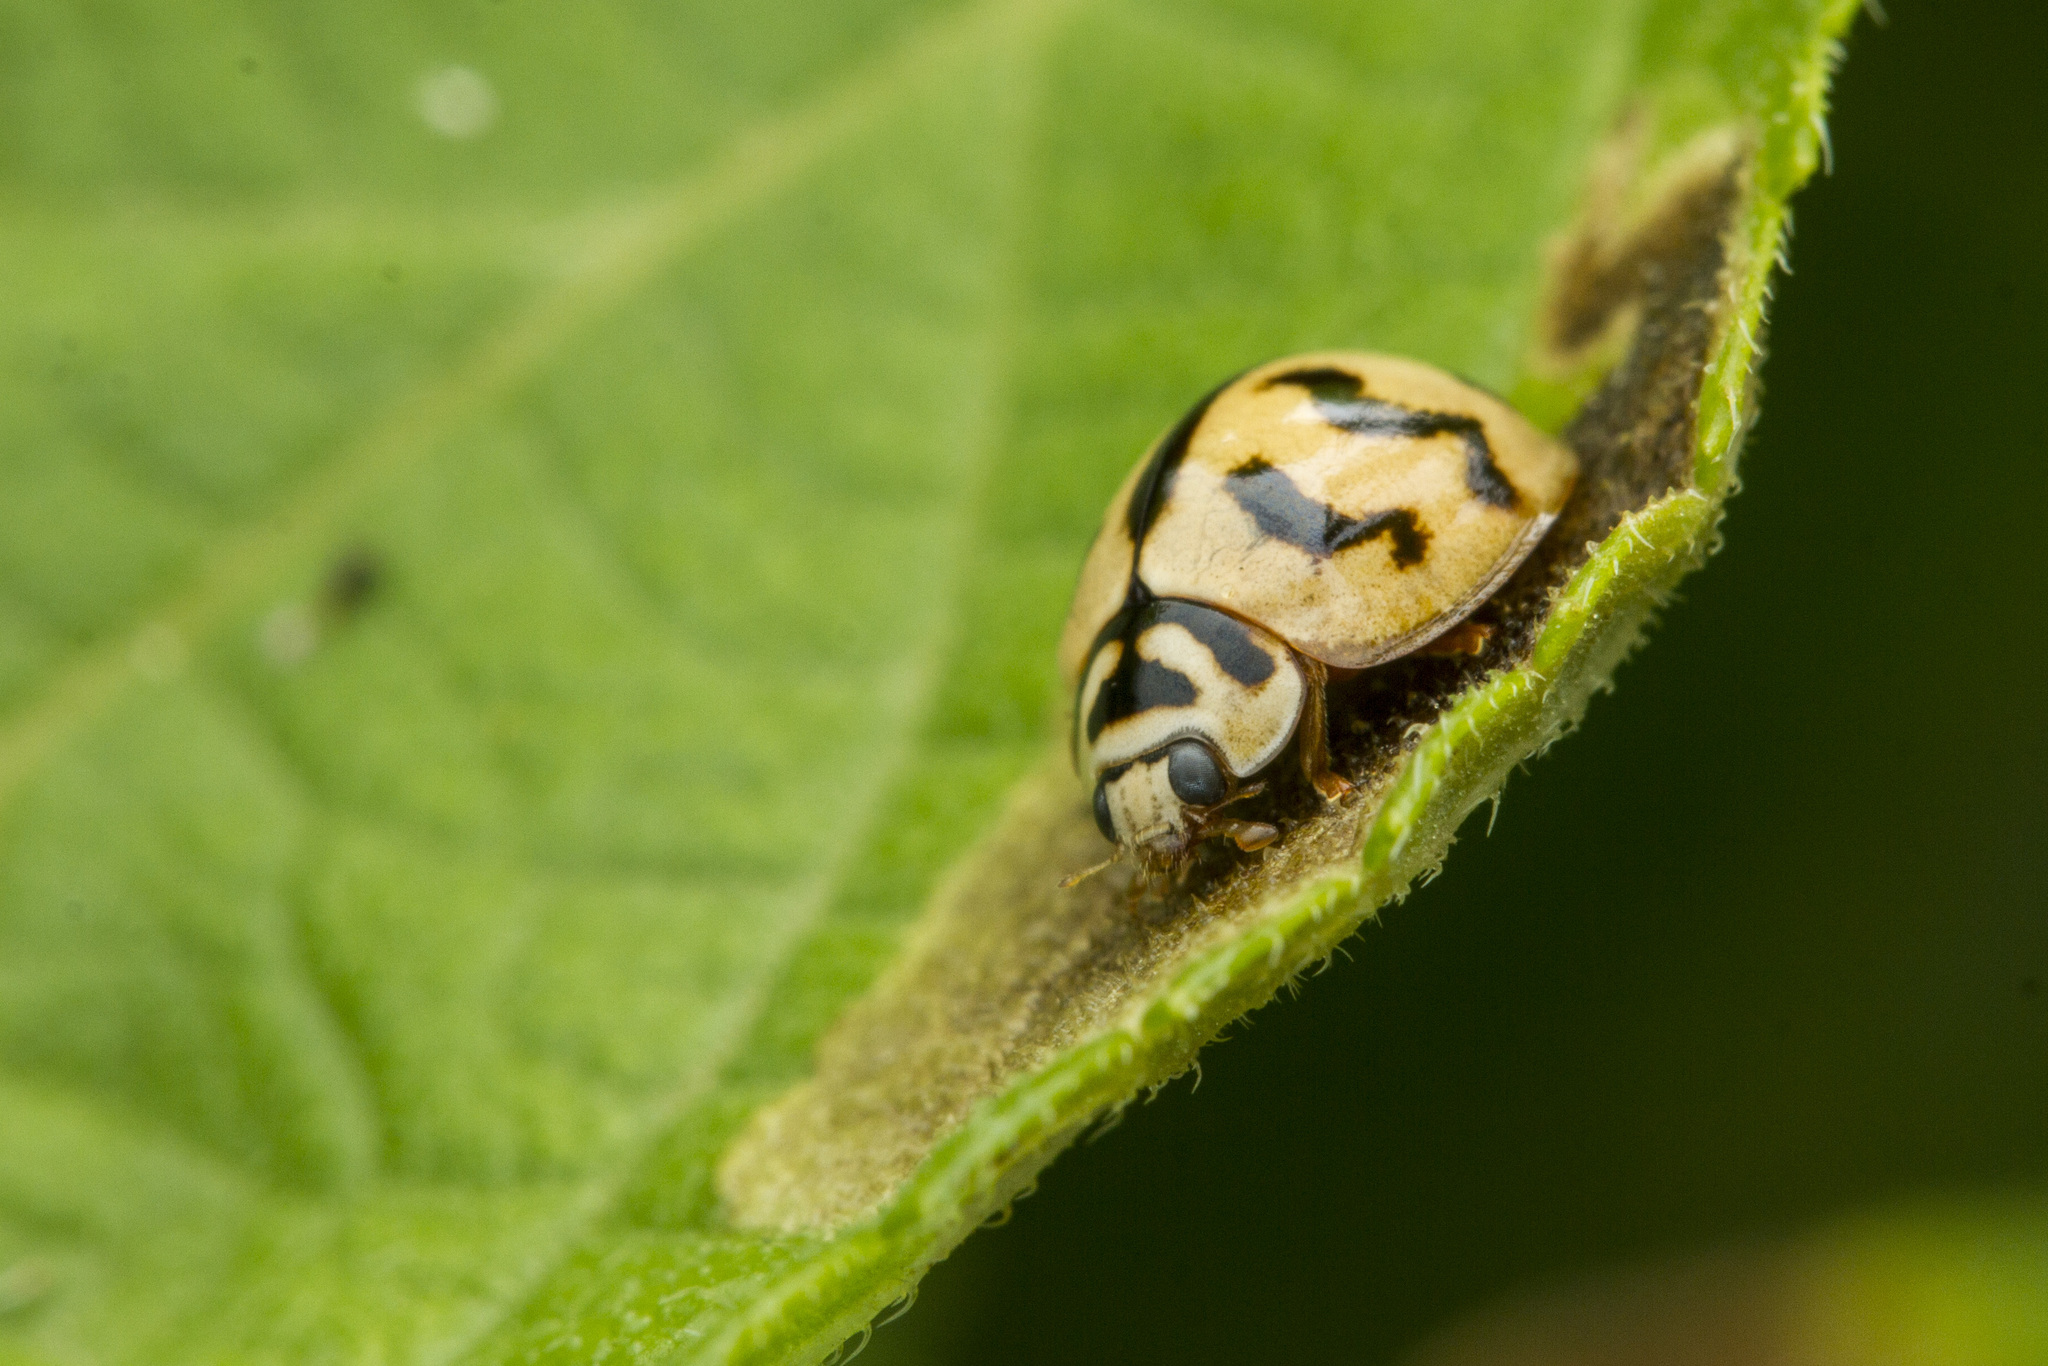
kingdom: Animalia
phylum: Arthropoda
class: Insecta
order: Coleoptera
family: Coccinellidae
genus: Cheilomenes
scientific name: Cheilomenes sexmaculata
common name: Ladybird beetle
